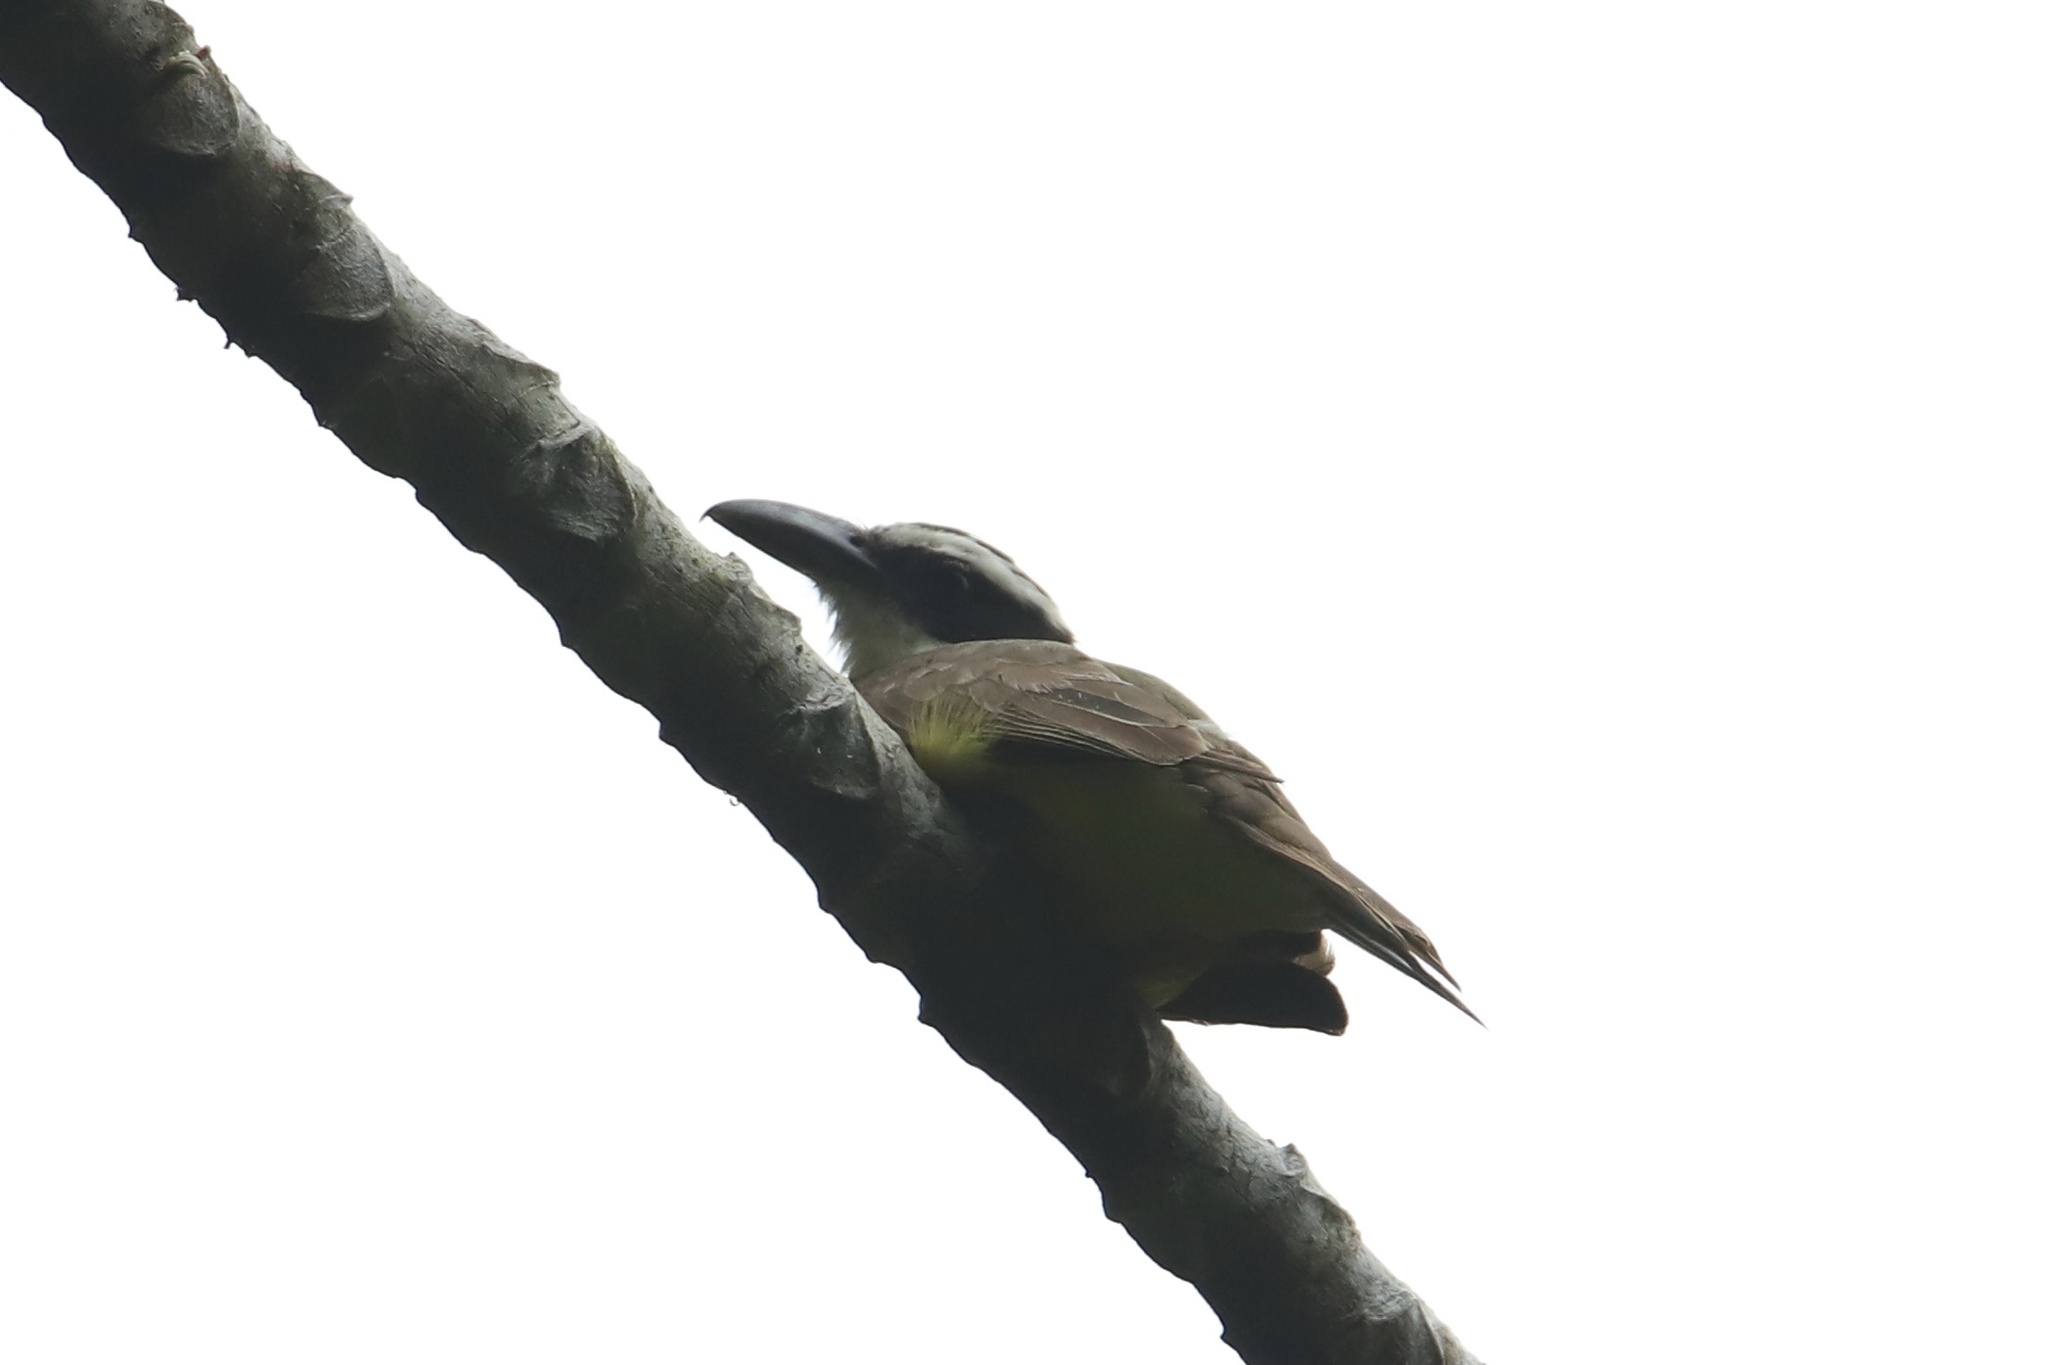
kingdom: Animalia
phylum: Chordata
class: Aves
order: Passeriformes
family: Tyrannidae
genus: Megarynchus
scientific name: Megarynchus pitangua
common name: Boat-billed flycatcher
